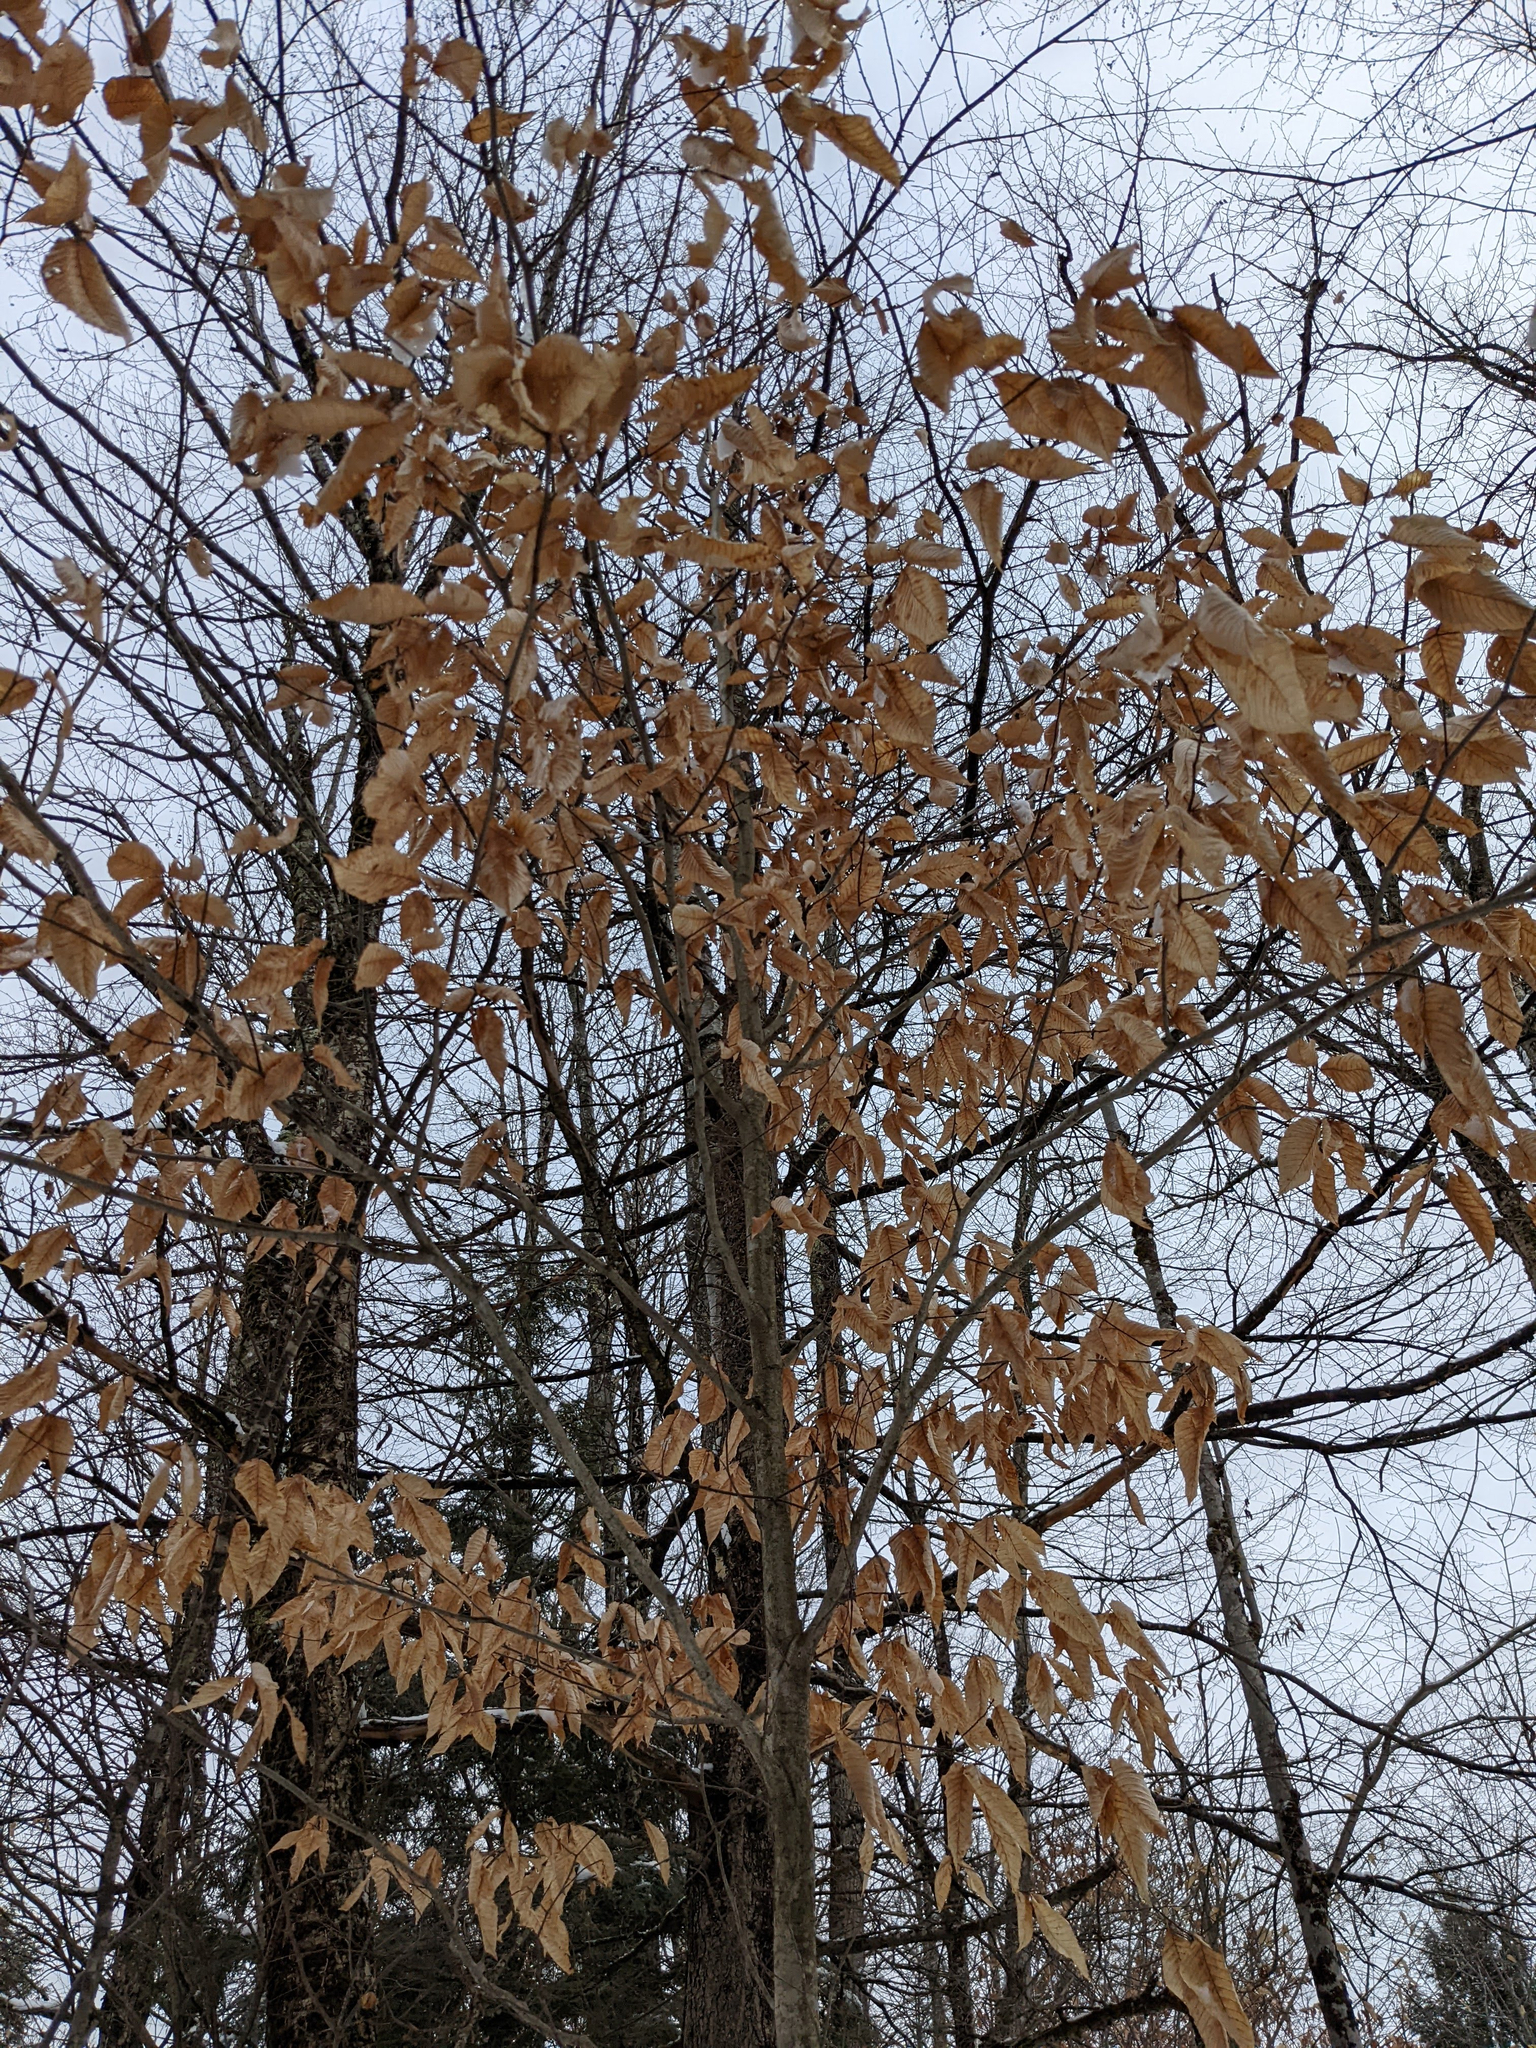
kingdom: Plantae
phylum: Tracheophyta
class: Magnoliopsida
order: Fagales
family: Fagaceae
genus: Fagus
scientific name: Fagus grandifolia
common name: American beech
